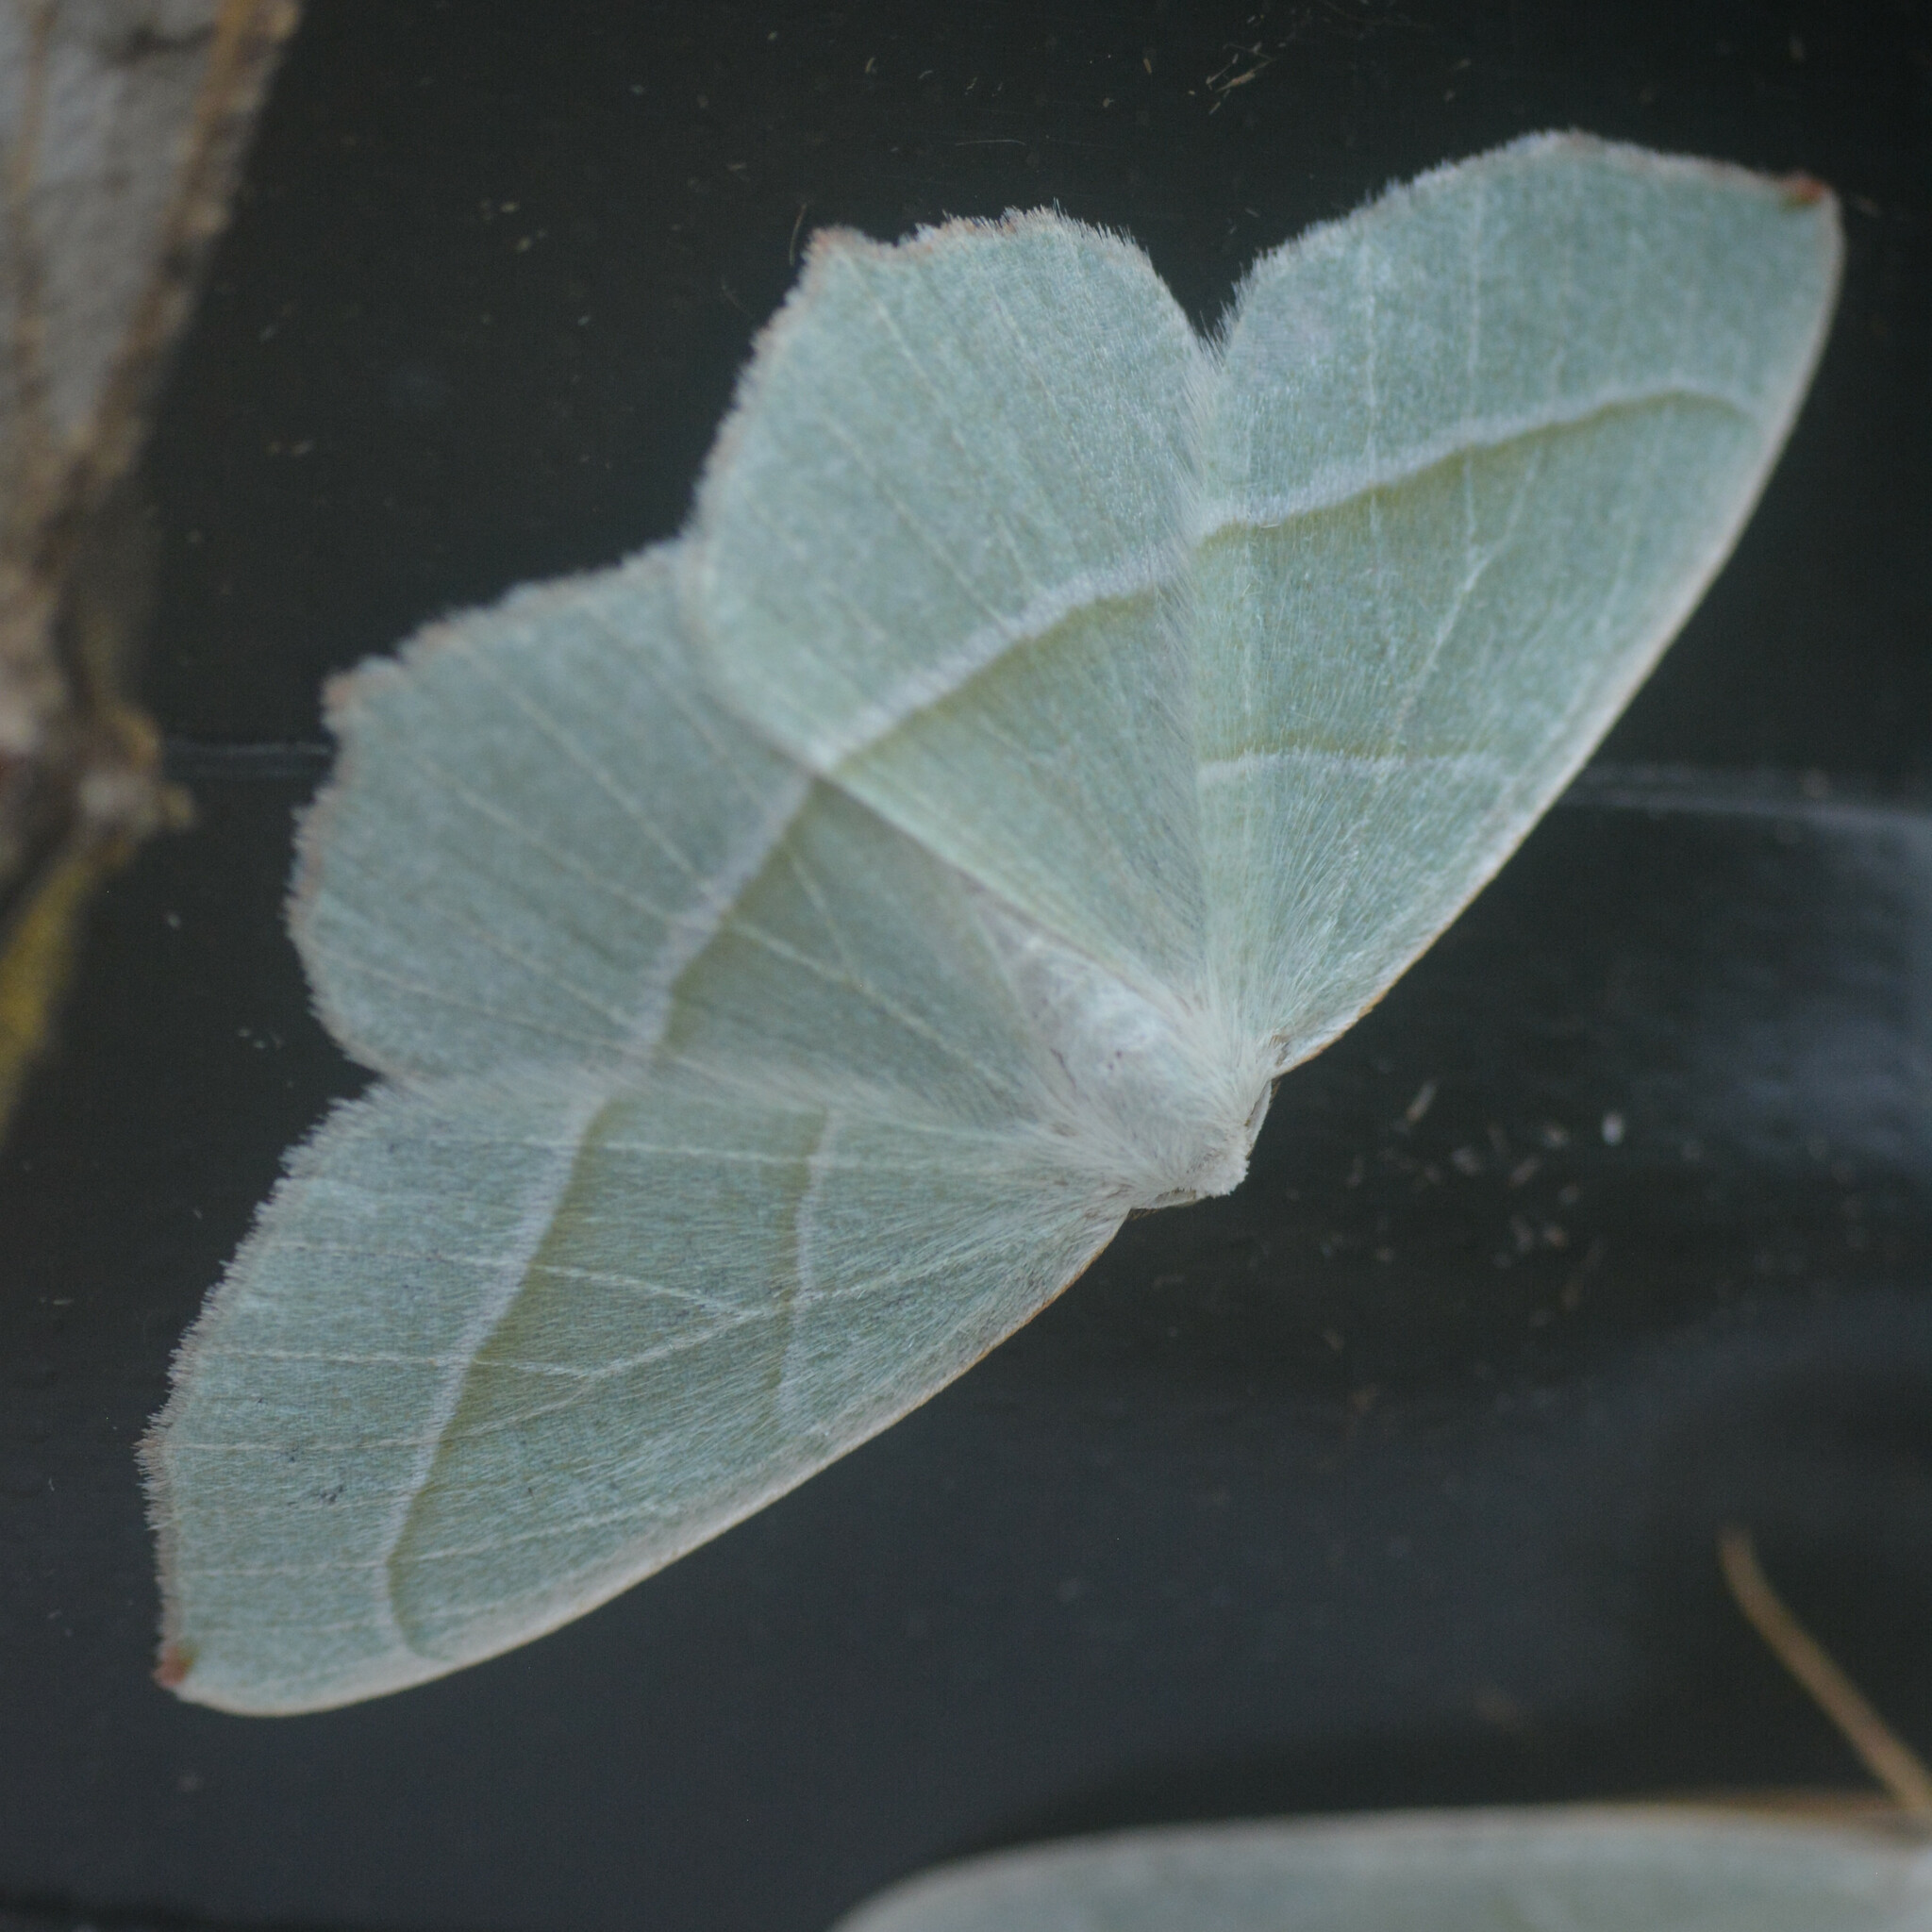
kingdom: Animalia
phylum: Arthropoda
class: Insecta
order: Lepidoptera
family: Geometridae
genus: Campaea
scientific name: Campaea margaritaria
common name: Light emerald
